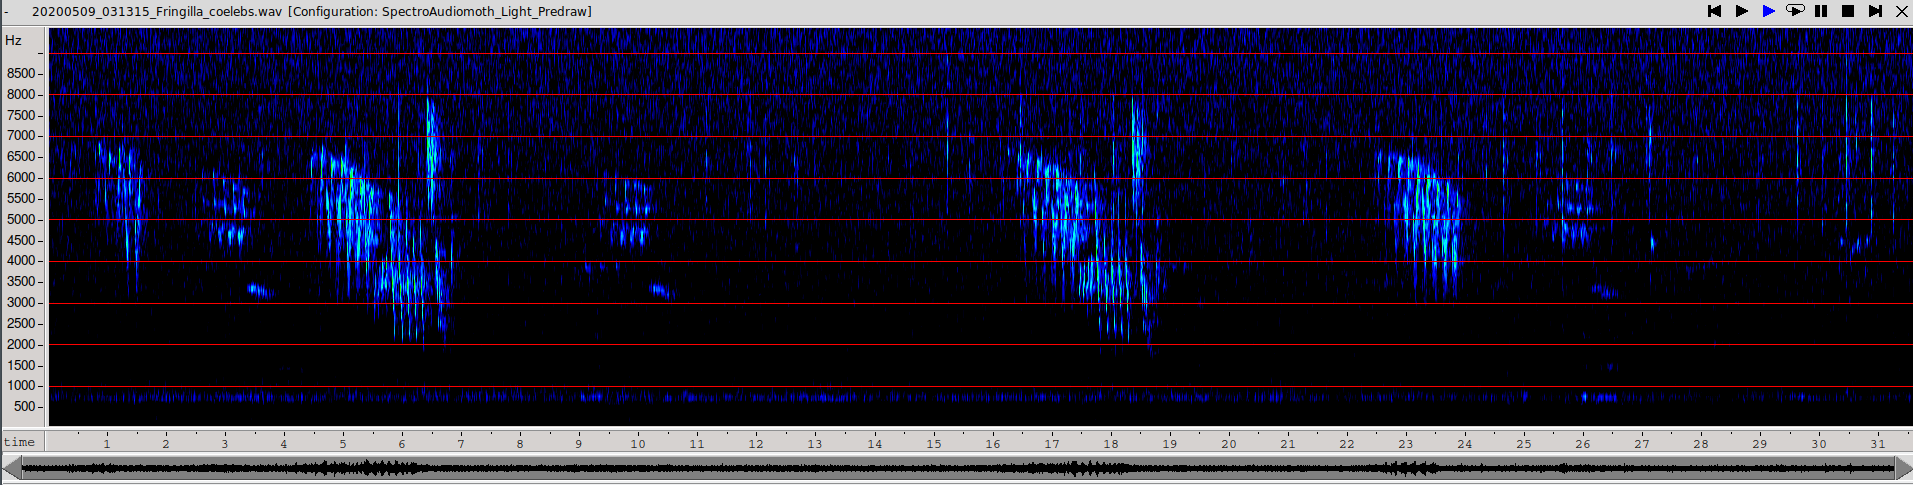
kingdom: Animalia
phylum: Chordata
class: Aves
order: Passeriformes
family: Fringillidae
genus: Fringilla
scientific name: Fringilla coelebs
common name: Common chaffinch
